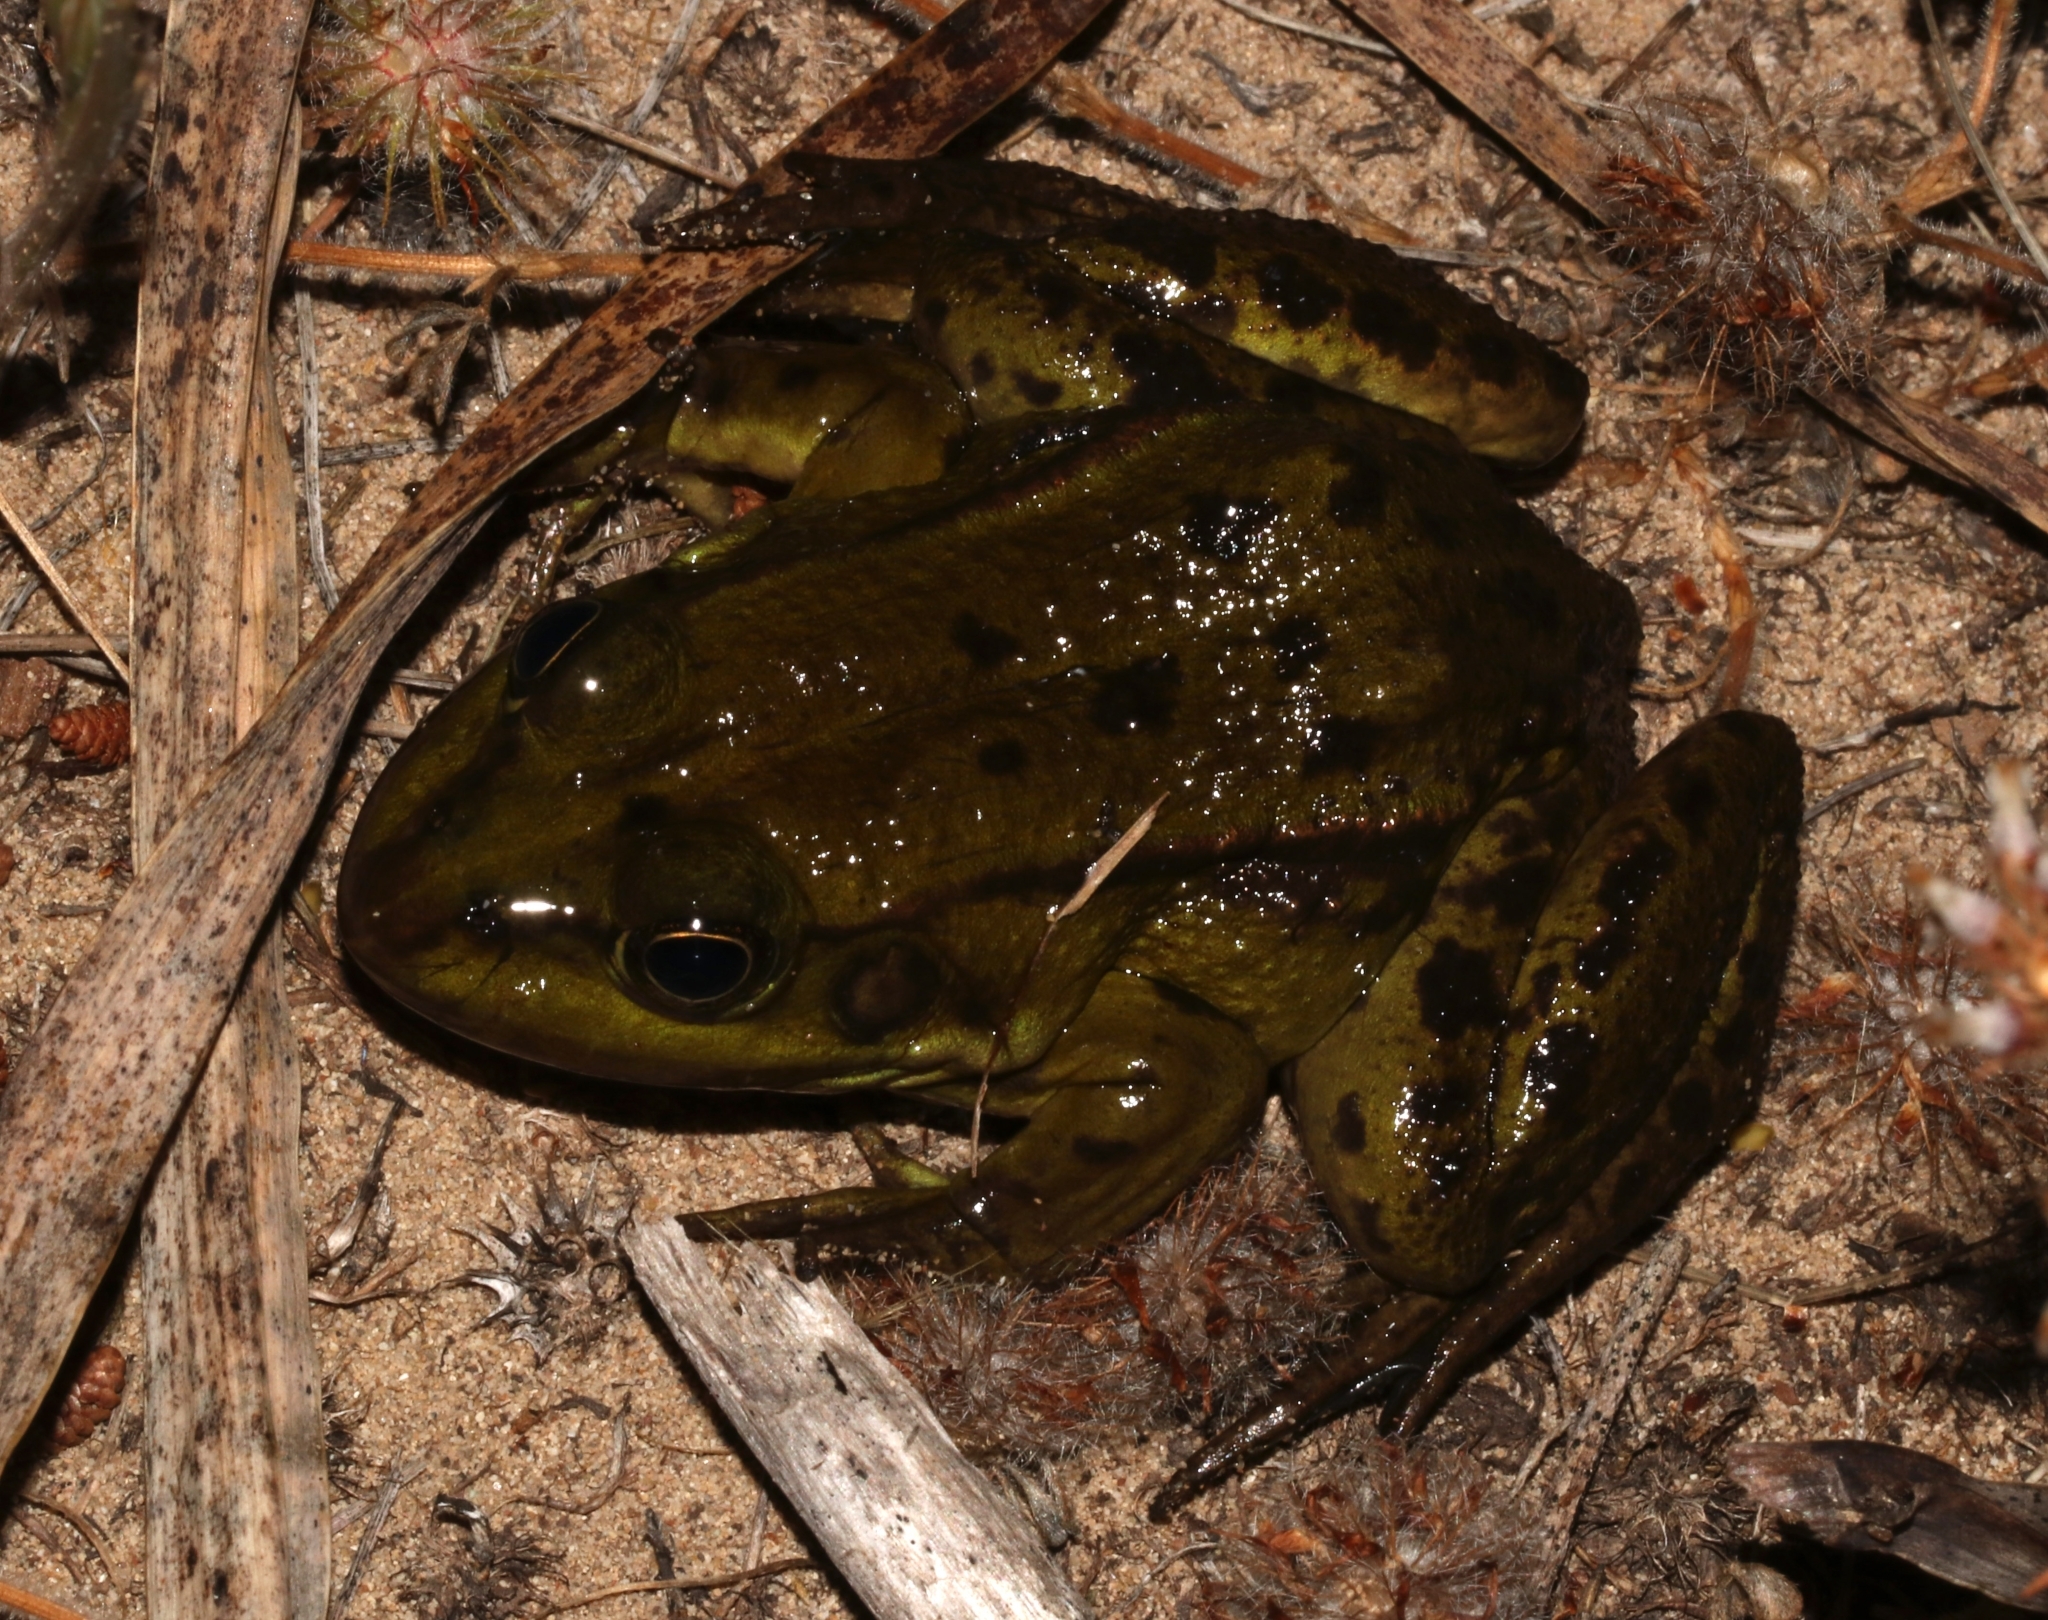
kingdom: Animalia
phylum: Chordata
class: Amphibia
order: Anura
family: Ranidae
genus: Pelophylax
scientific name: Pelophylax epeiroticus
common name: Epirus water frog
